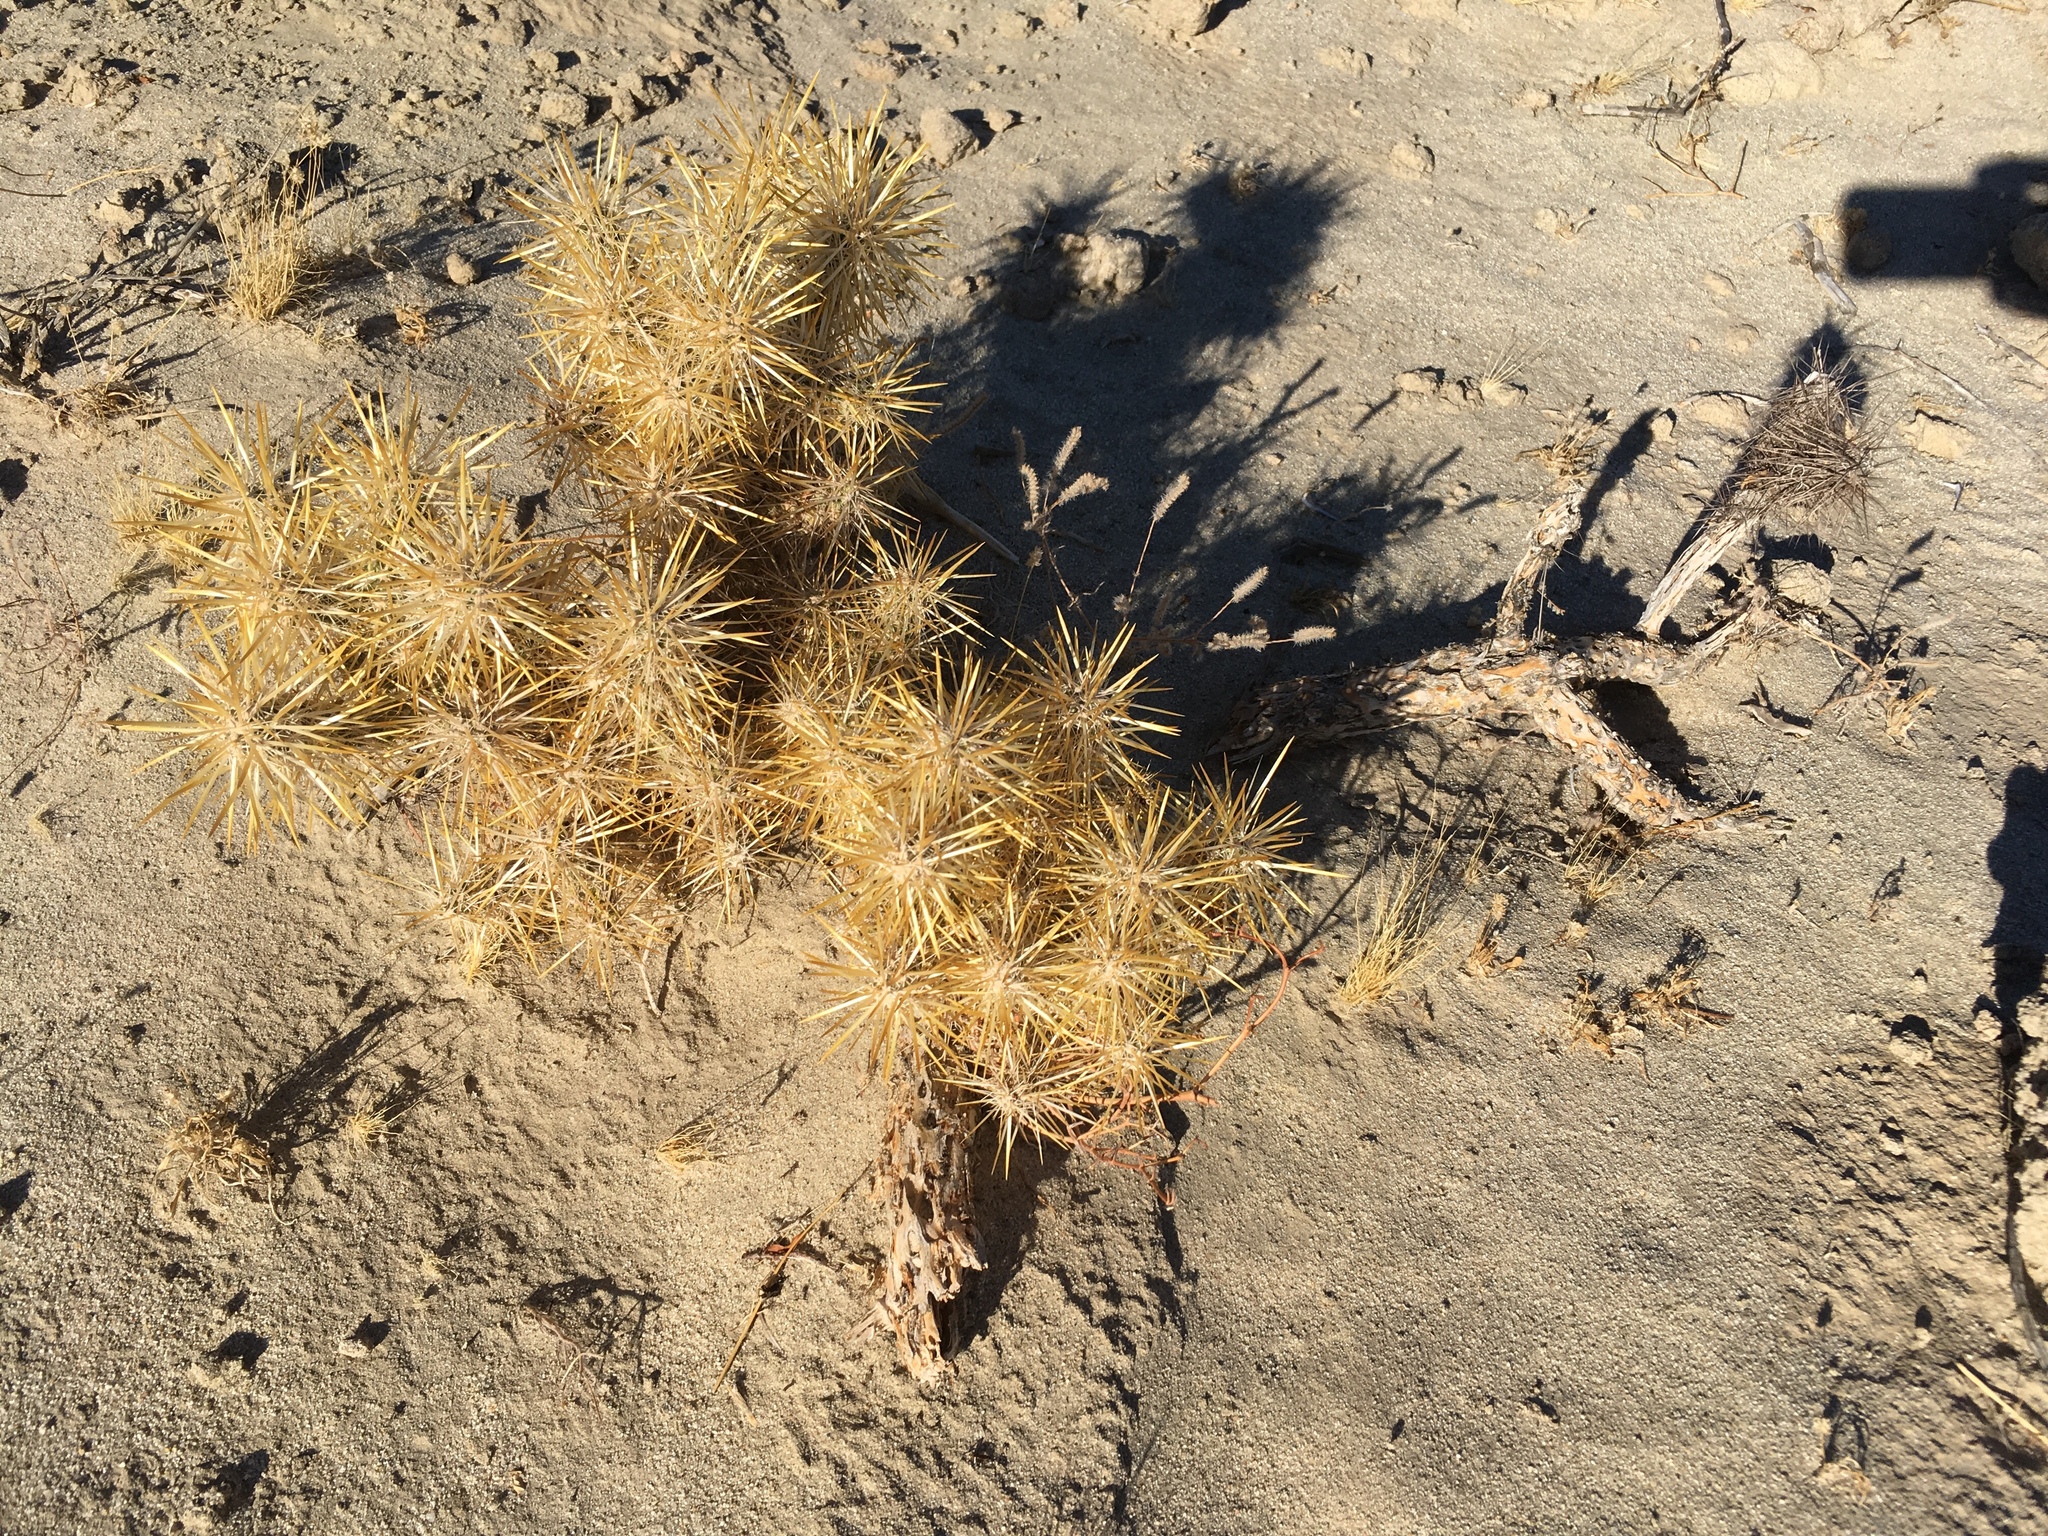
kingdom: Plantae
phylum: Tracheophyta
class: Magnoliopsida
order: Caryophyllales
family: Cactaceae
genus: Cylindropuntia
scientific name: Cylindropuntia echinocarpa
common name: Ground cholla
